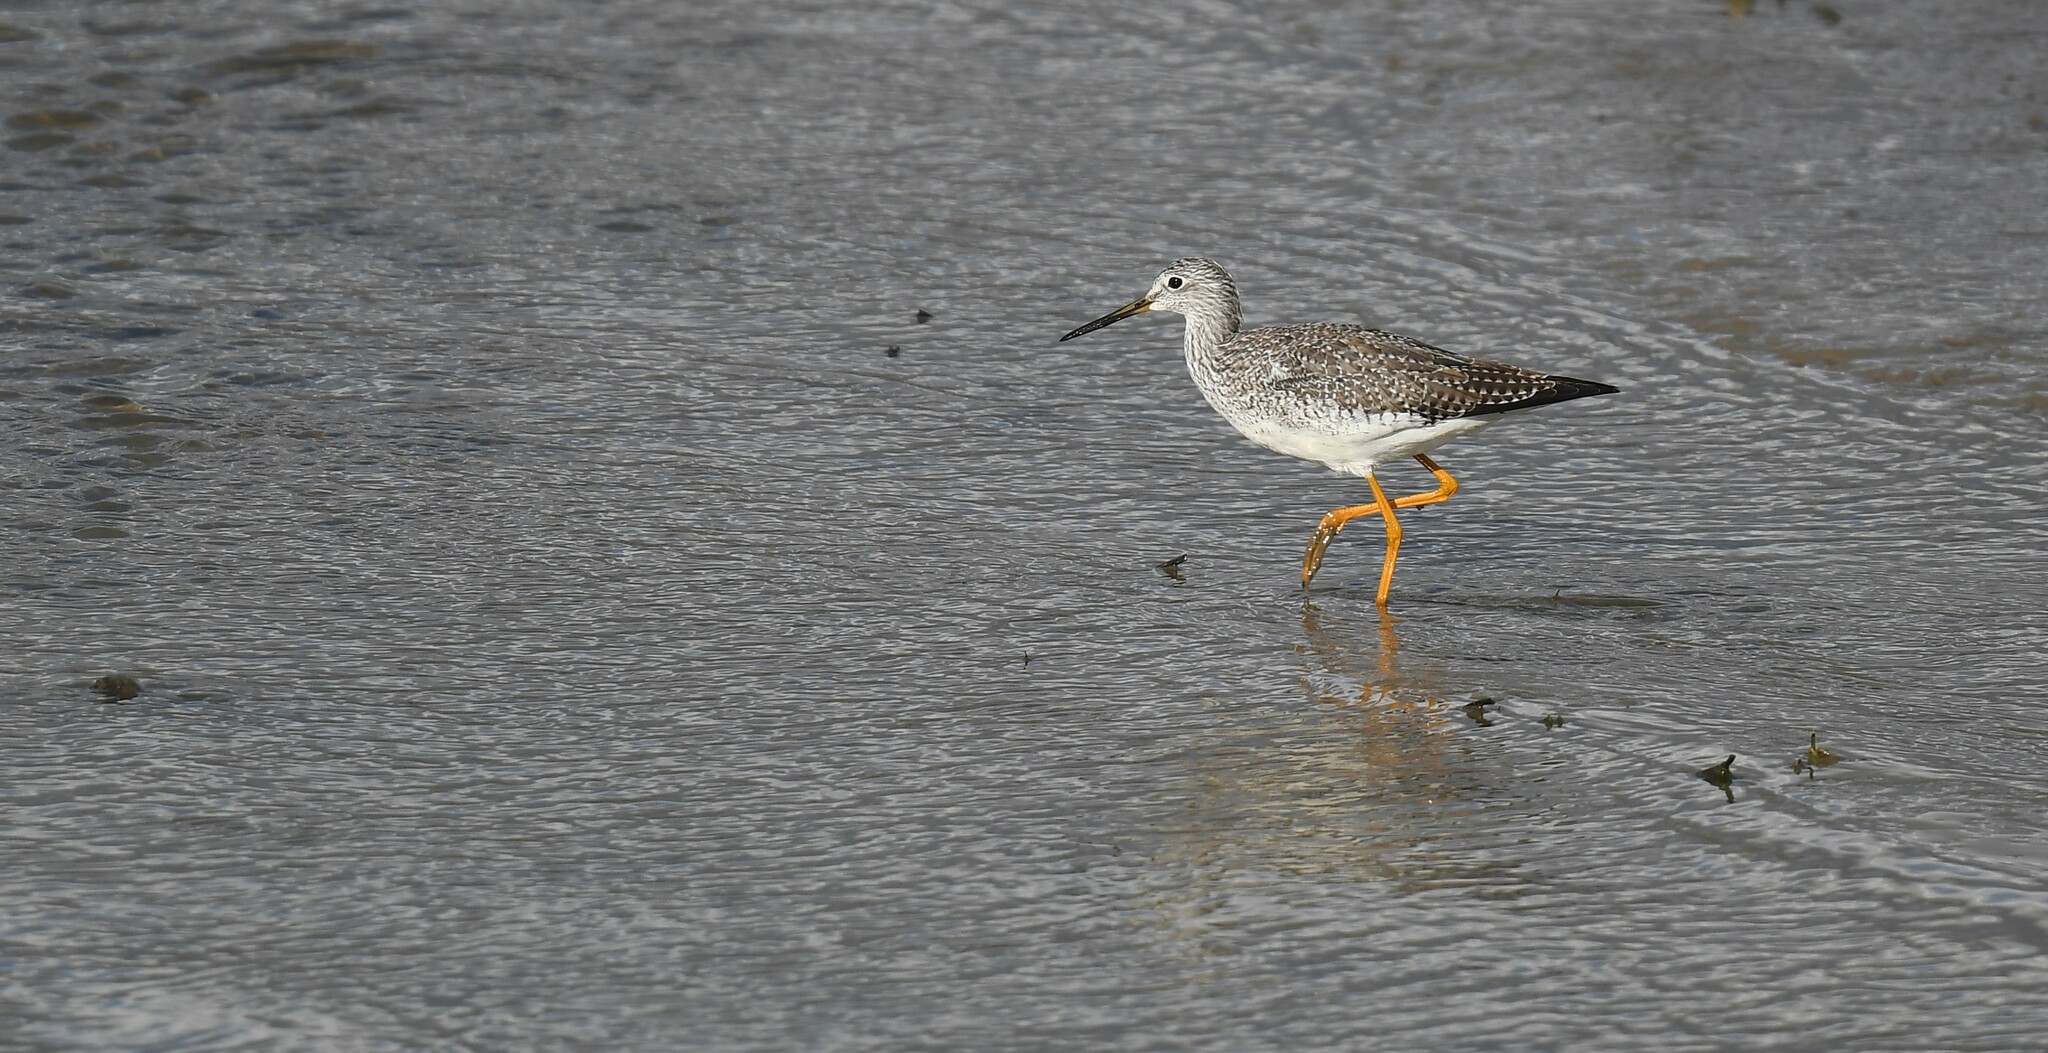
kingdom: Animalia
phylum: Chordata
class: Aves
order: Charadriiformes
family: Scolopacidae
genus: Tringa
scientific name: Tringa melanoleuca
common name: Greater yellowlegs
